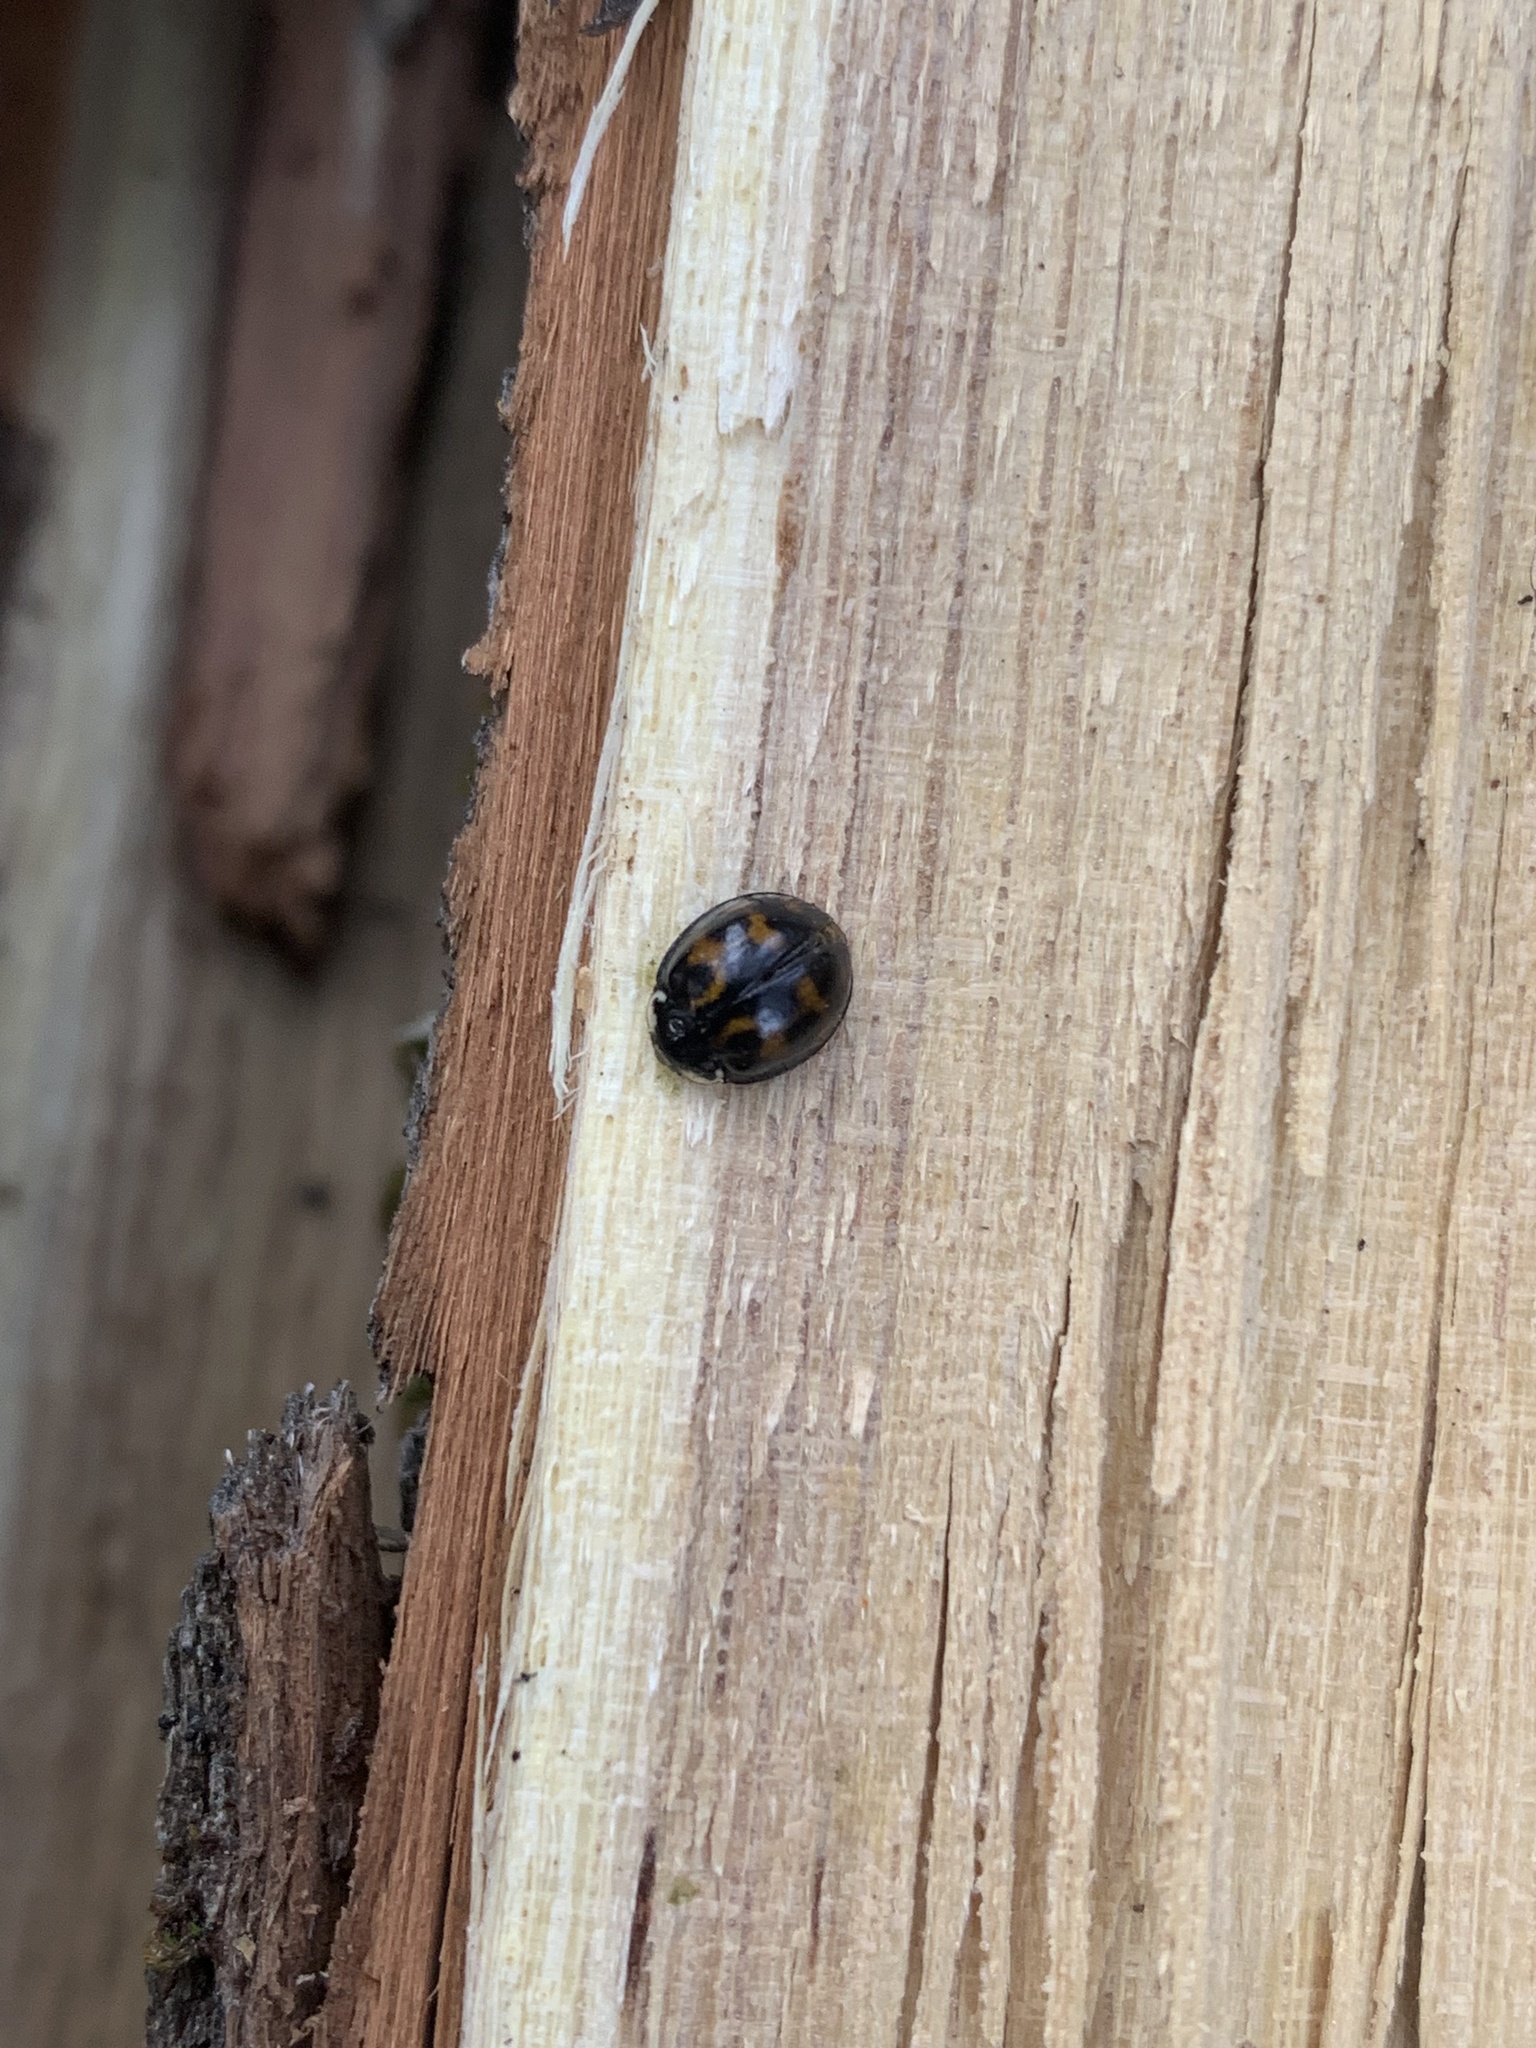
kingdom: Animalia
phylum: Arthropoda
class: Insecta
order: Coleoptera
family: Coccinellidae
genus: Harmonia
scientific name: Harmonia axyridis
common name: Harlequin ladybird
